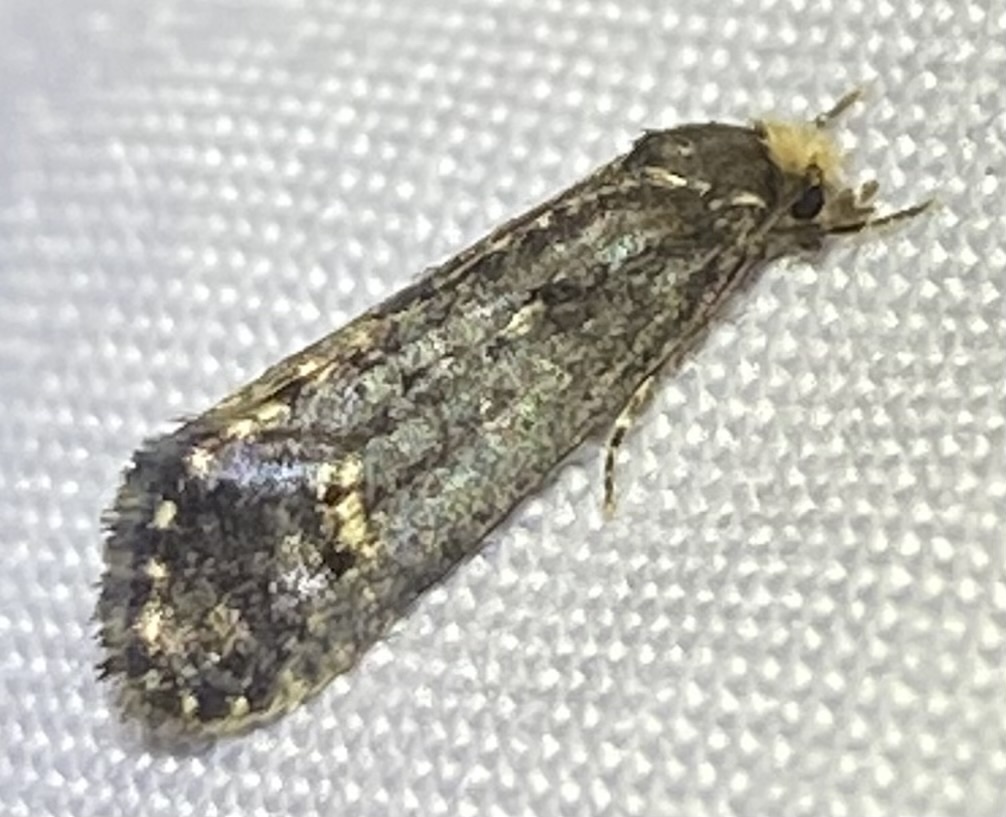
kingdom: Animalia
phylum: Arthropoda
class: Insecta
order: Lepidoptera
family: Tineidae
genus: Pelecystola
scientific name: Pelecystola nearctica
